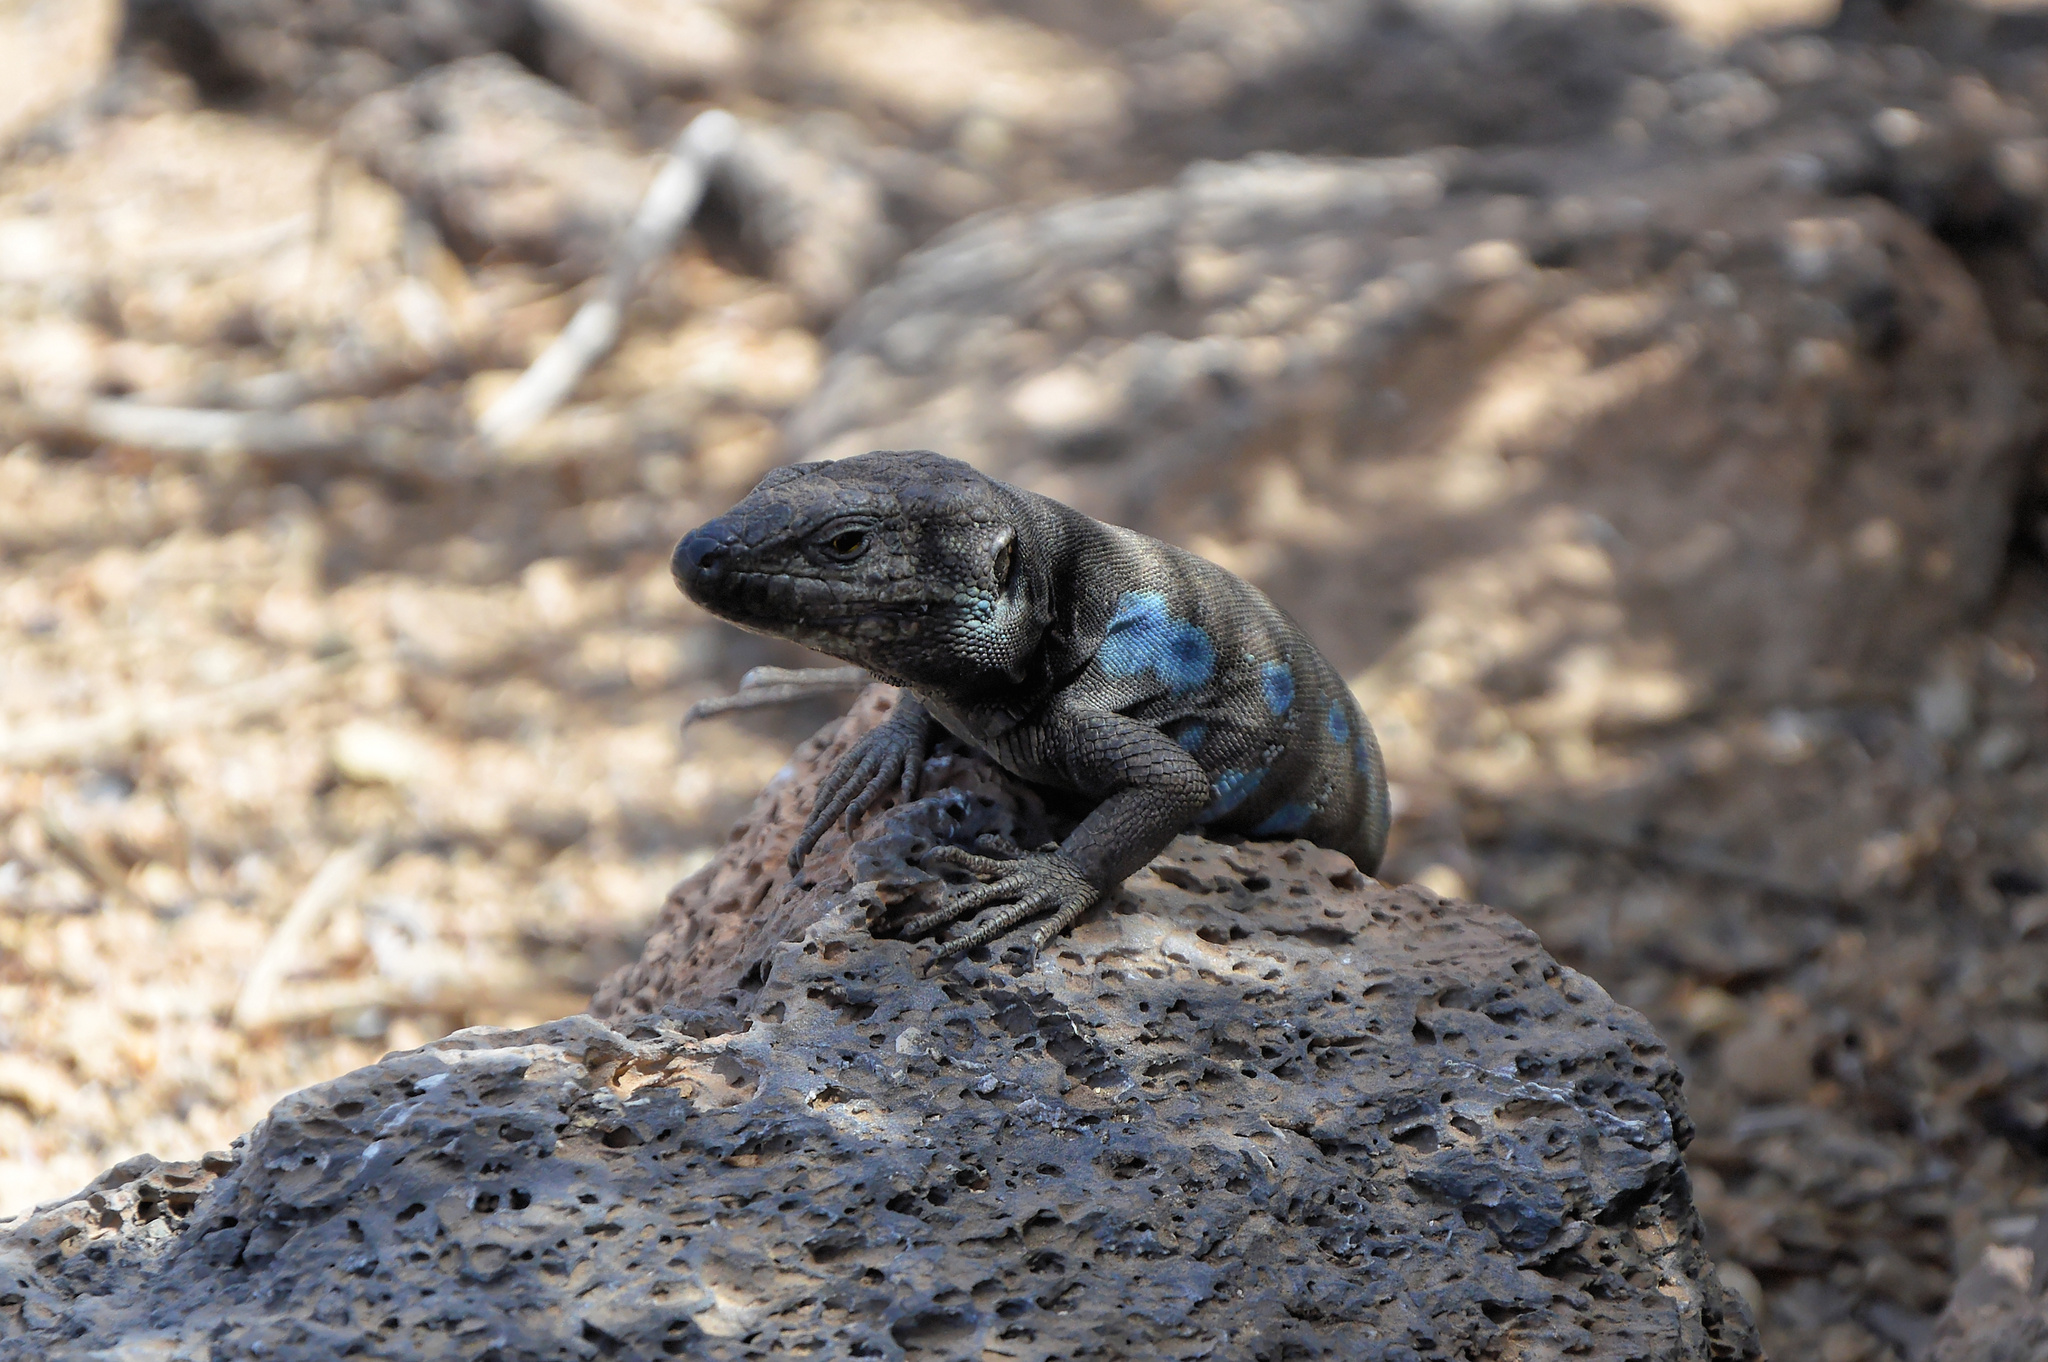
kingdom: Animalia
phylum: Chordata
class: Squamata
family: Lacertidae
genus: Gallotia
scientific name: Gallotia galloti
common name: Gallot's lizard
